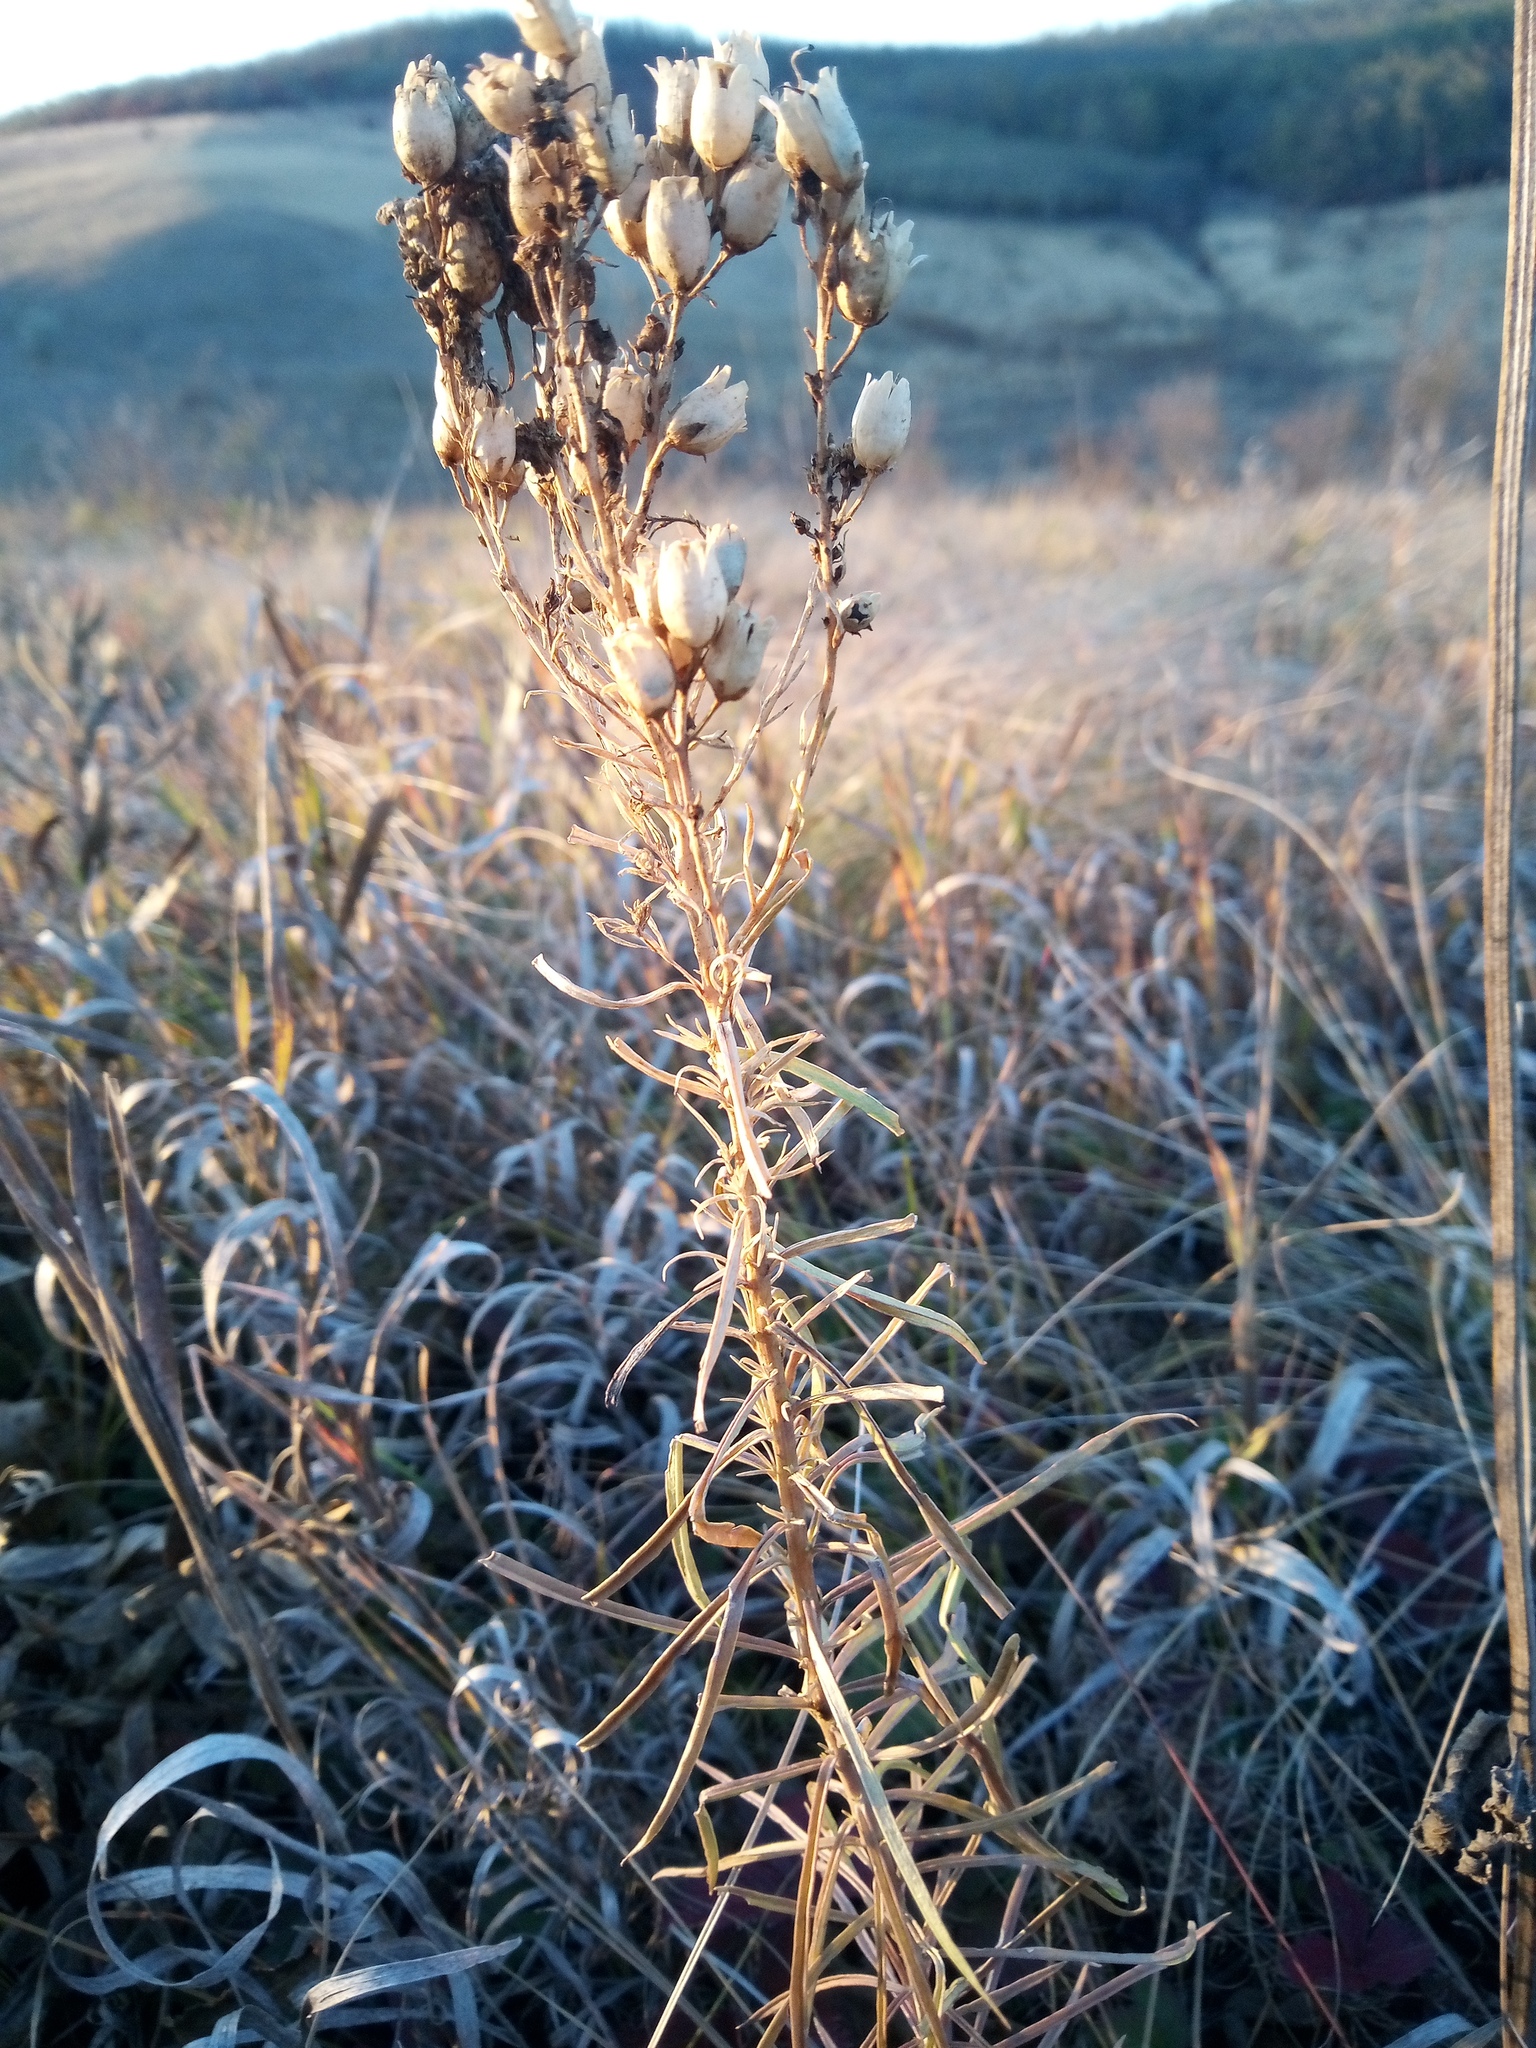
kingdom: Plantae
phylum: Tracheophyta
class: Magnoliopsida
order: Lamiales
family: Plantaginaceae
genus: Linaria
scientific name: Linaria biebersteinii
